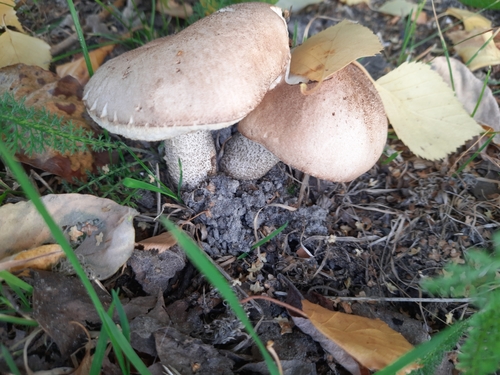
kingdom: Fungi
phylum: Basidiomycota
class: Agaricomycetes
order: Boletales
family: Boletaceae
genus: Leccinum
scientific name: Leccinum scabrum
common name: Blushing bolete
